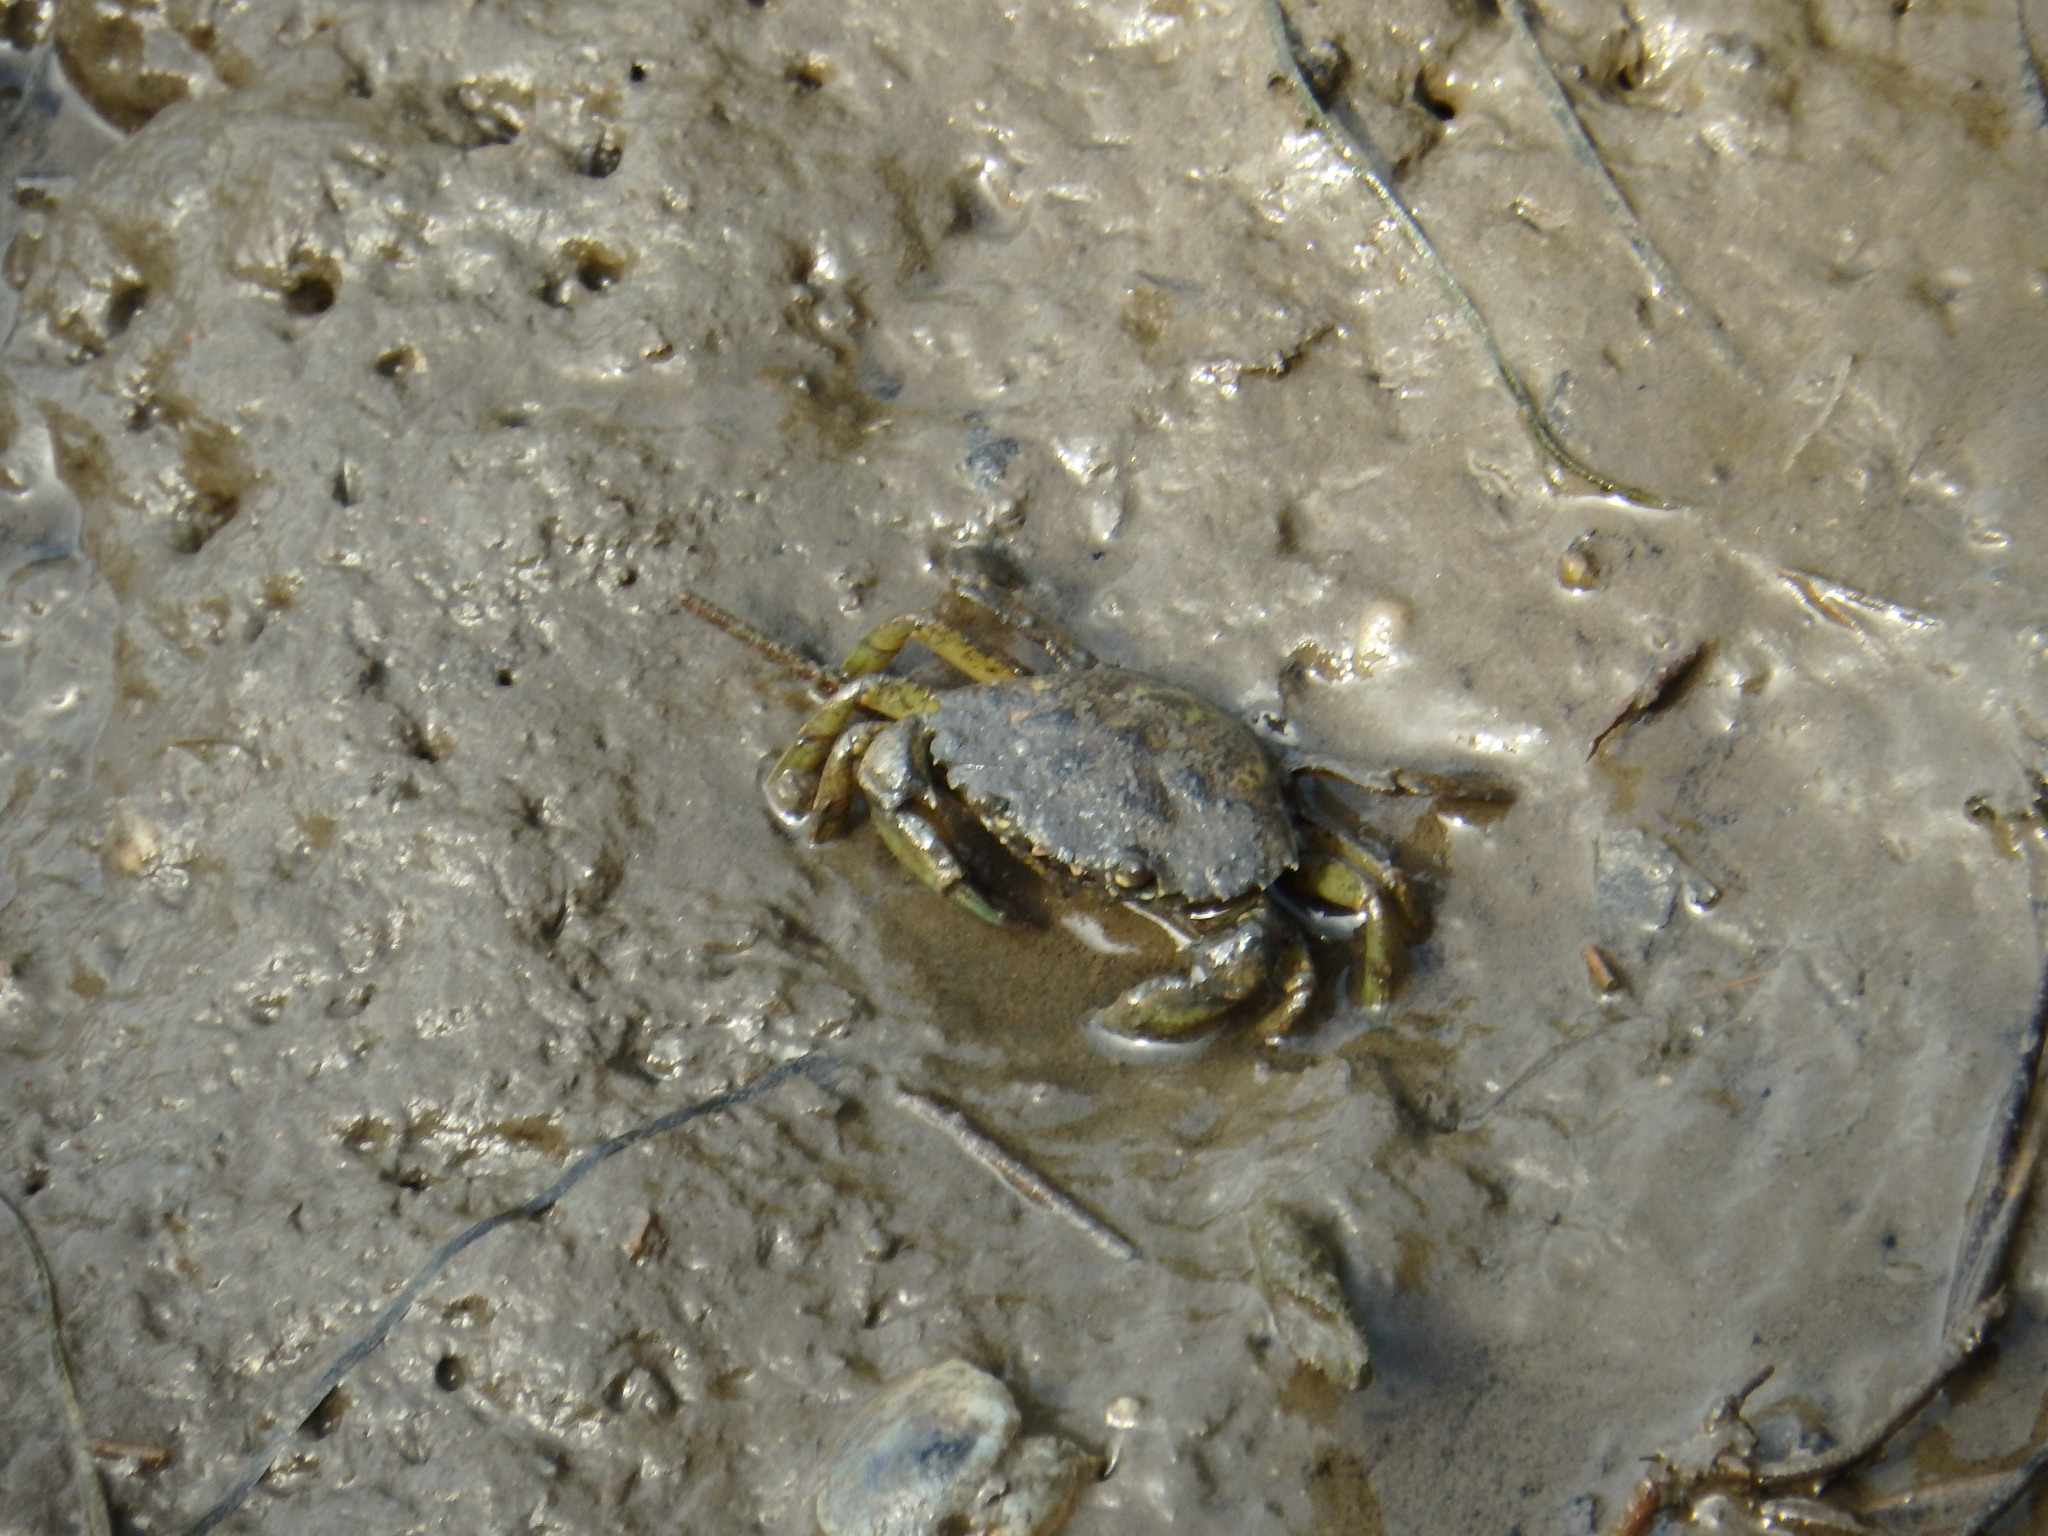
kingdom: Animalia
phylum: Arthropoda
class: Malacostraca
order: Decapoda
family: Carcinidae
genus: Carcinus
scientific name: Carcinus maenas
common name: European green crab
